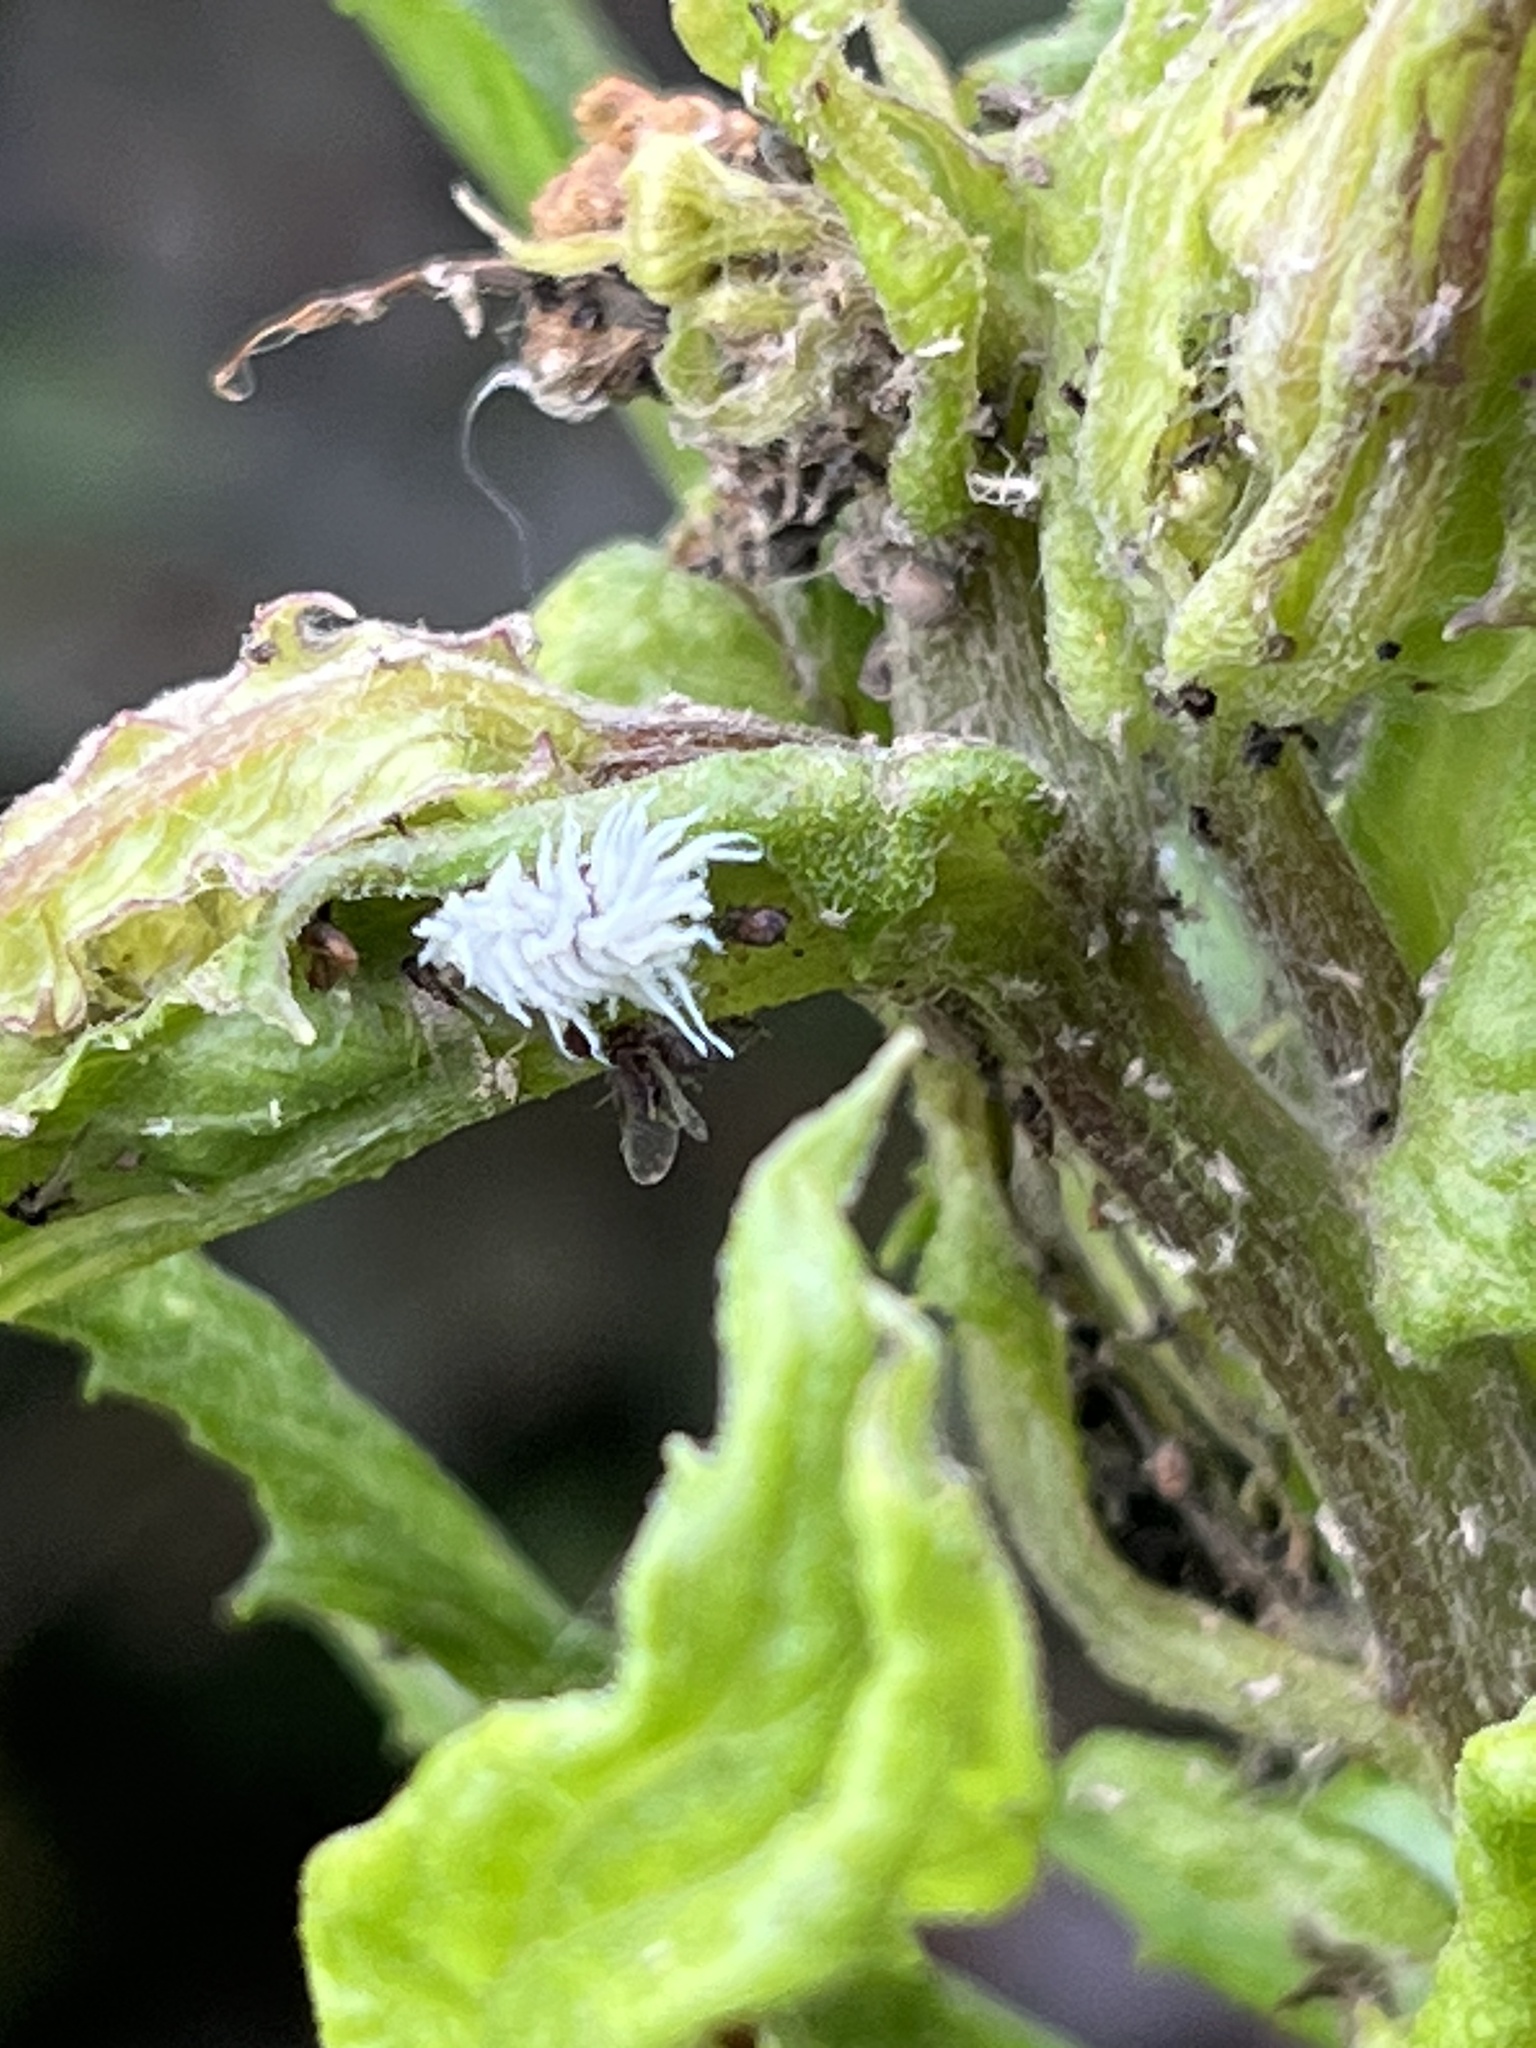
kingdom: Animalia
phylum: Arthropoda
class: Insecta
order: Coleoptera
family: Coccinellidae
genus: Cryptolaemus
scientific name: Cryptolaemus montrouzieri
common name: Mealybug destroyer
